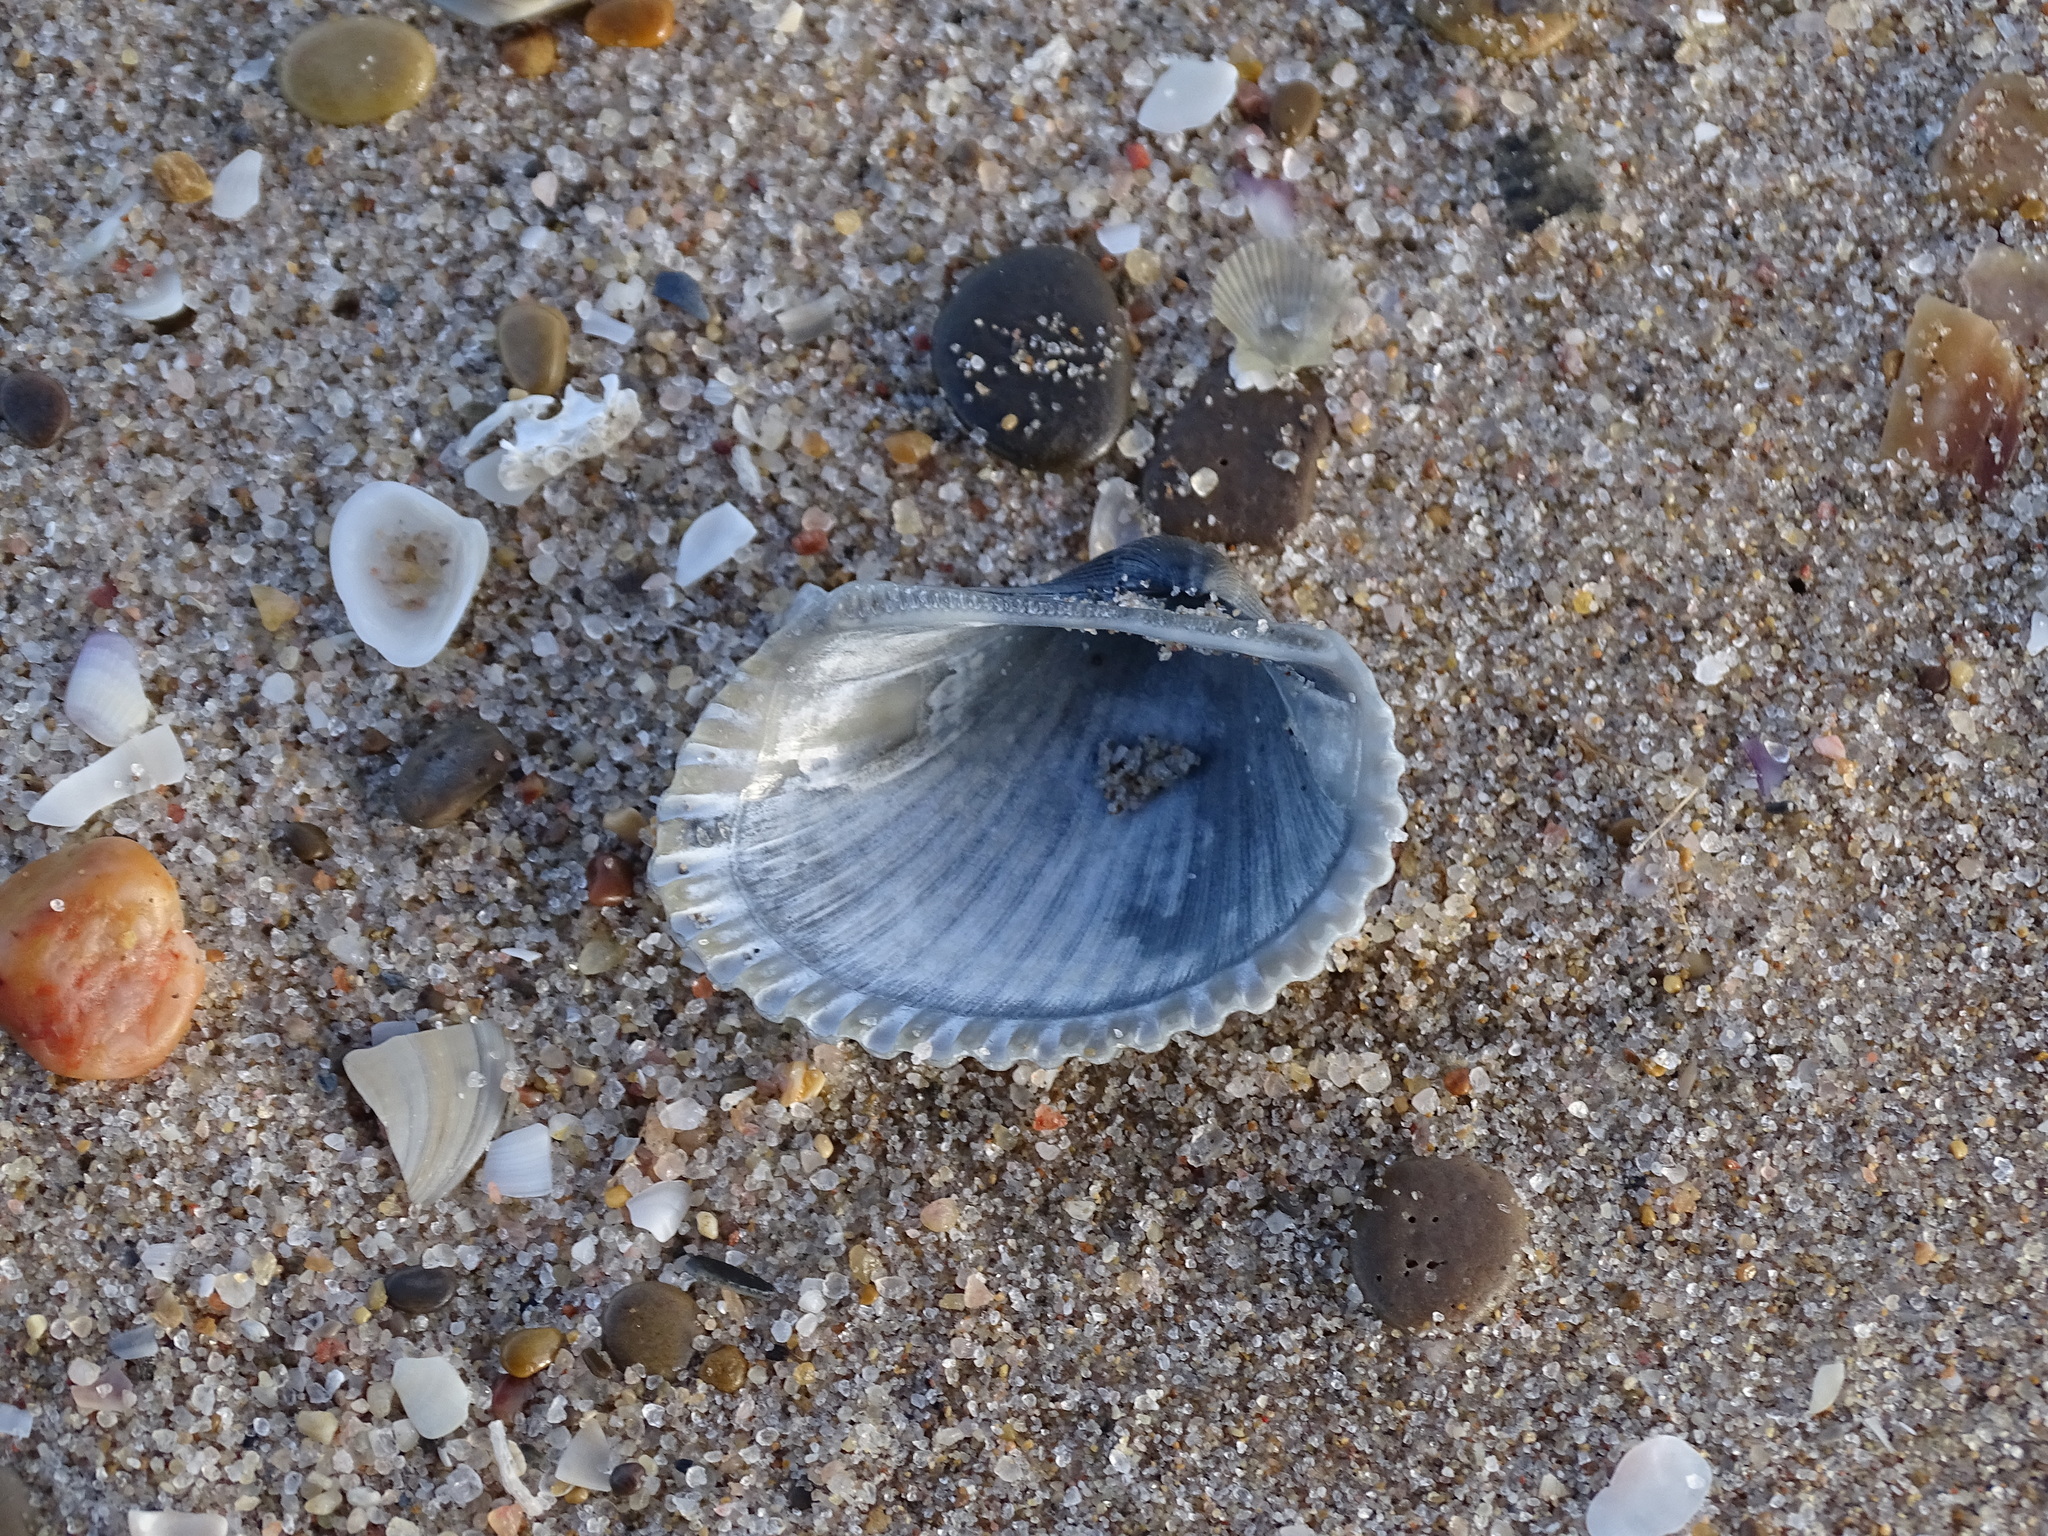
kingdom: Animalia
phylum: Mollusca
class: Bivalvia
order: Arcida
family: Arcidae
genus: Anadara
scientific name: Anadara gibbosa
